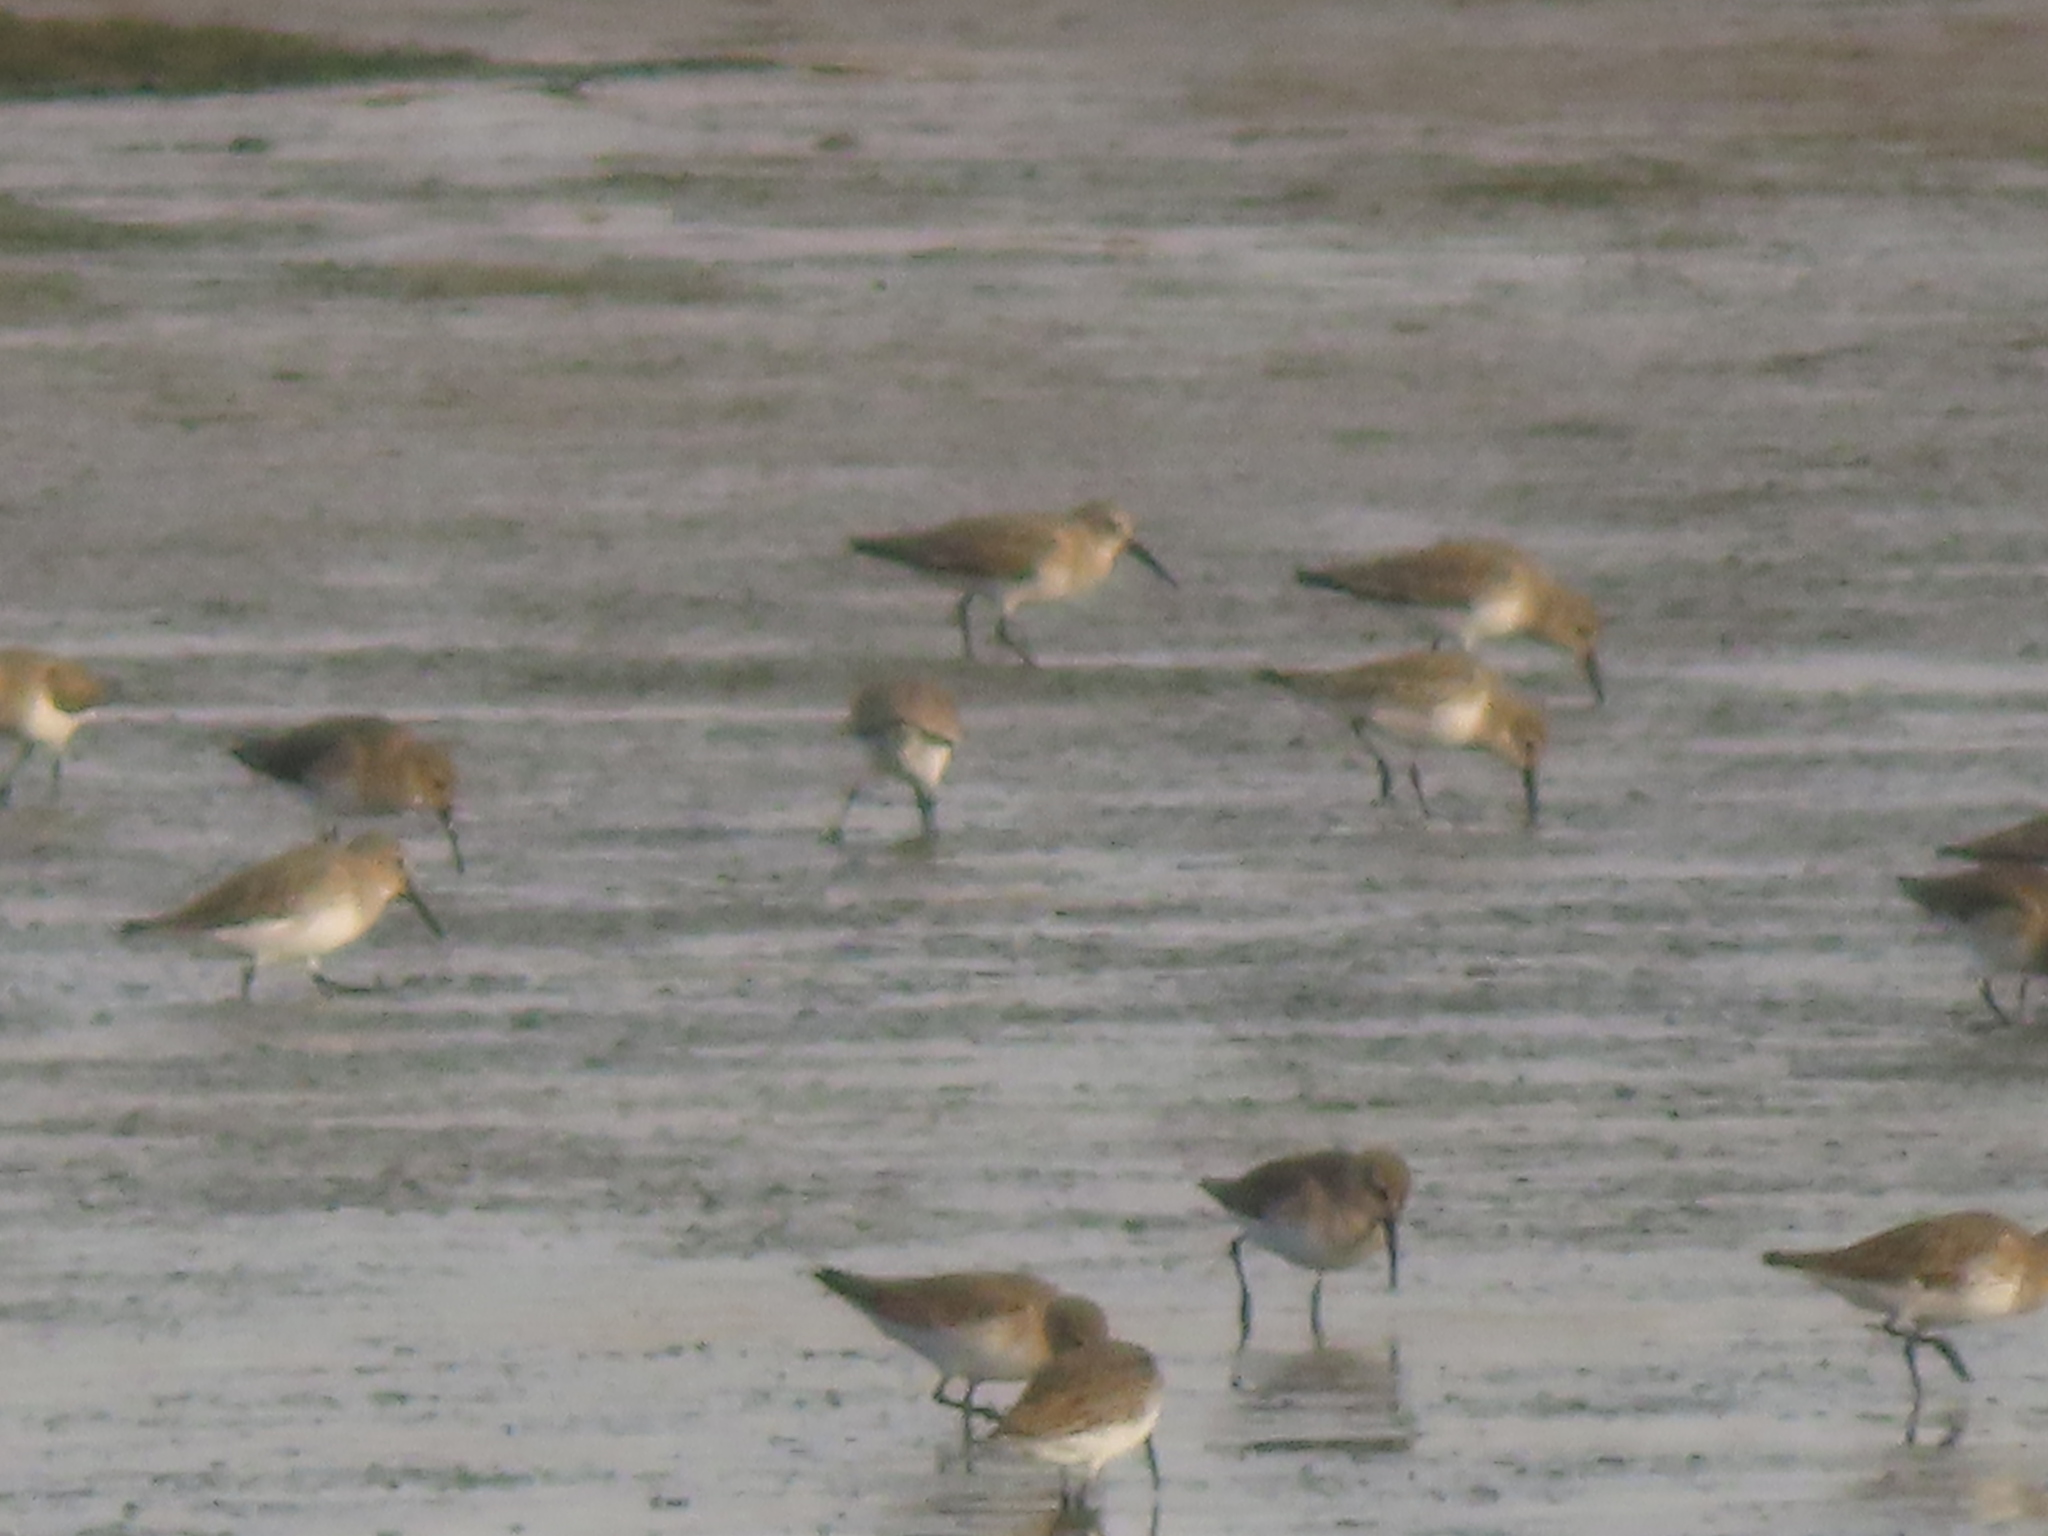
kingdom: Animalia
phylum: Chordata
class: Aves
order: Charadriiformes
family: Scolopacidae
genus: Calidris
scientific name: Calidris alpina
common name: Dunlin
